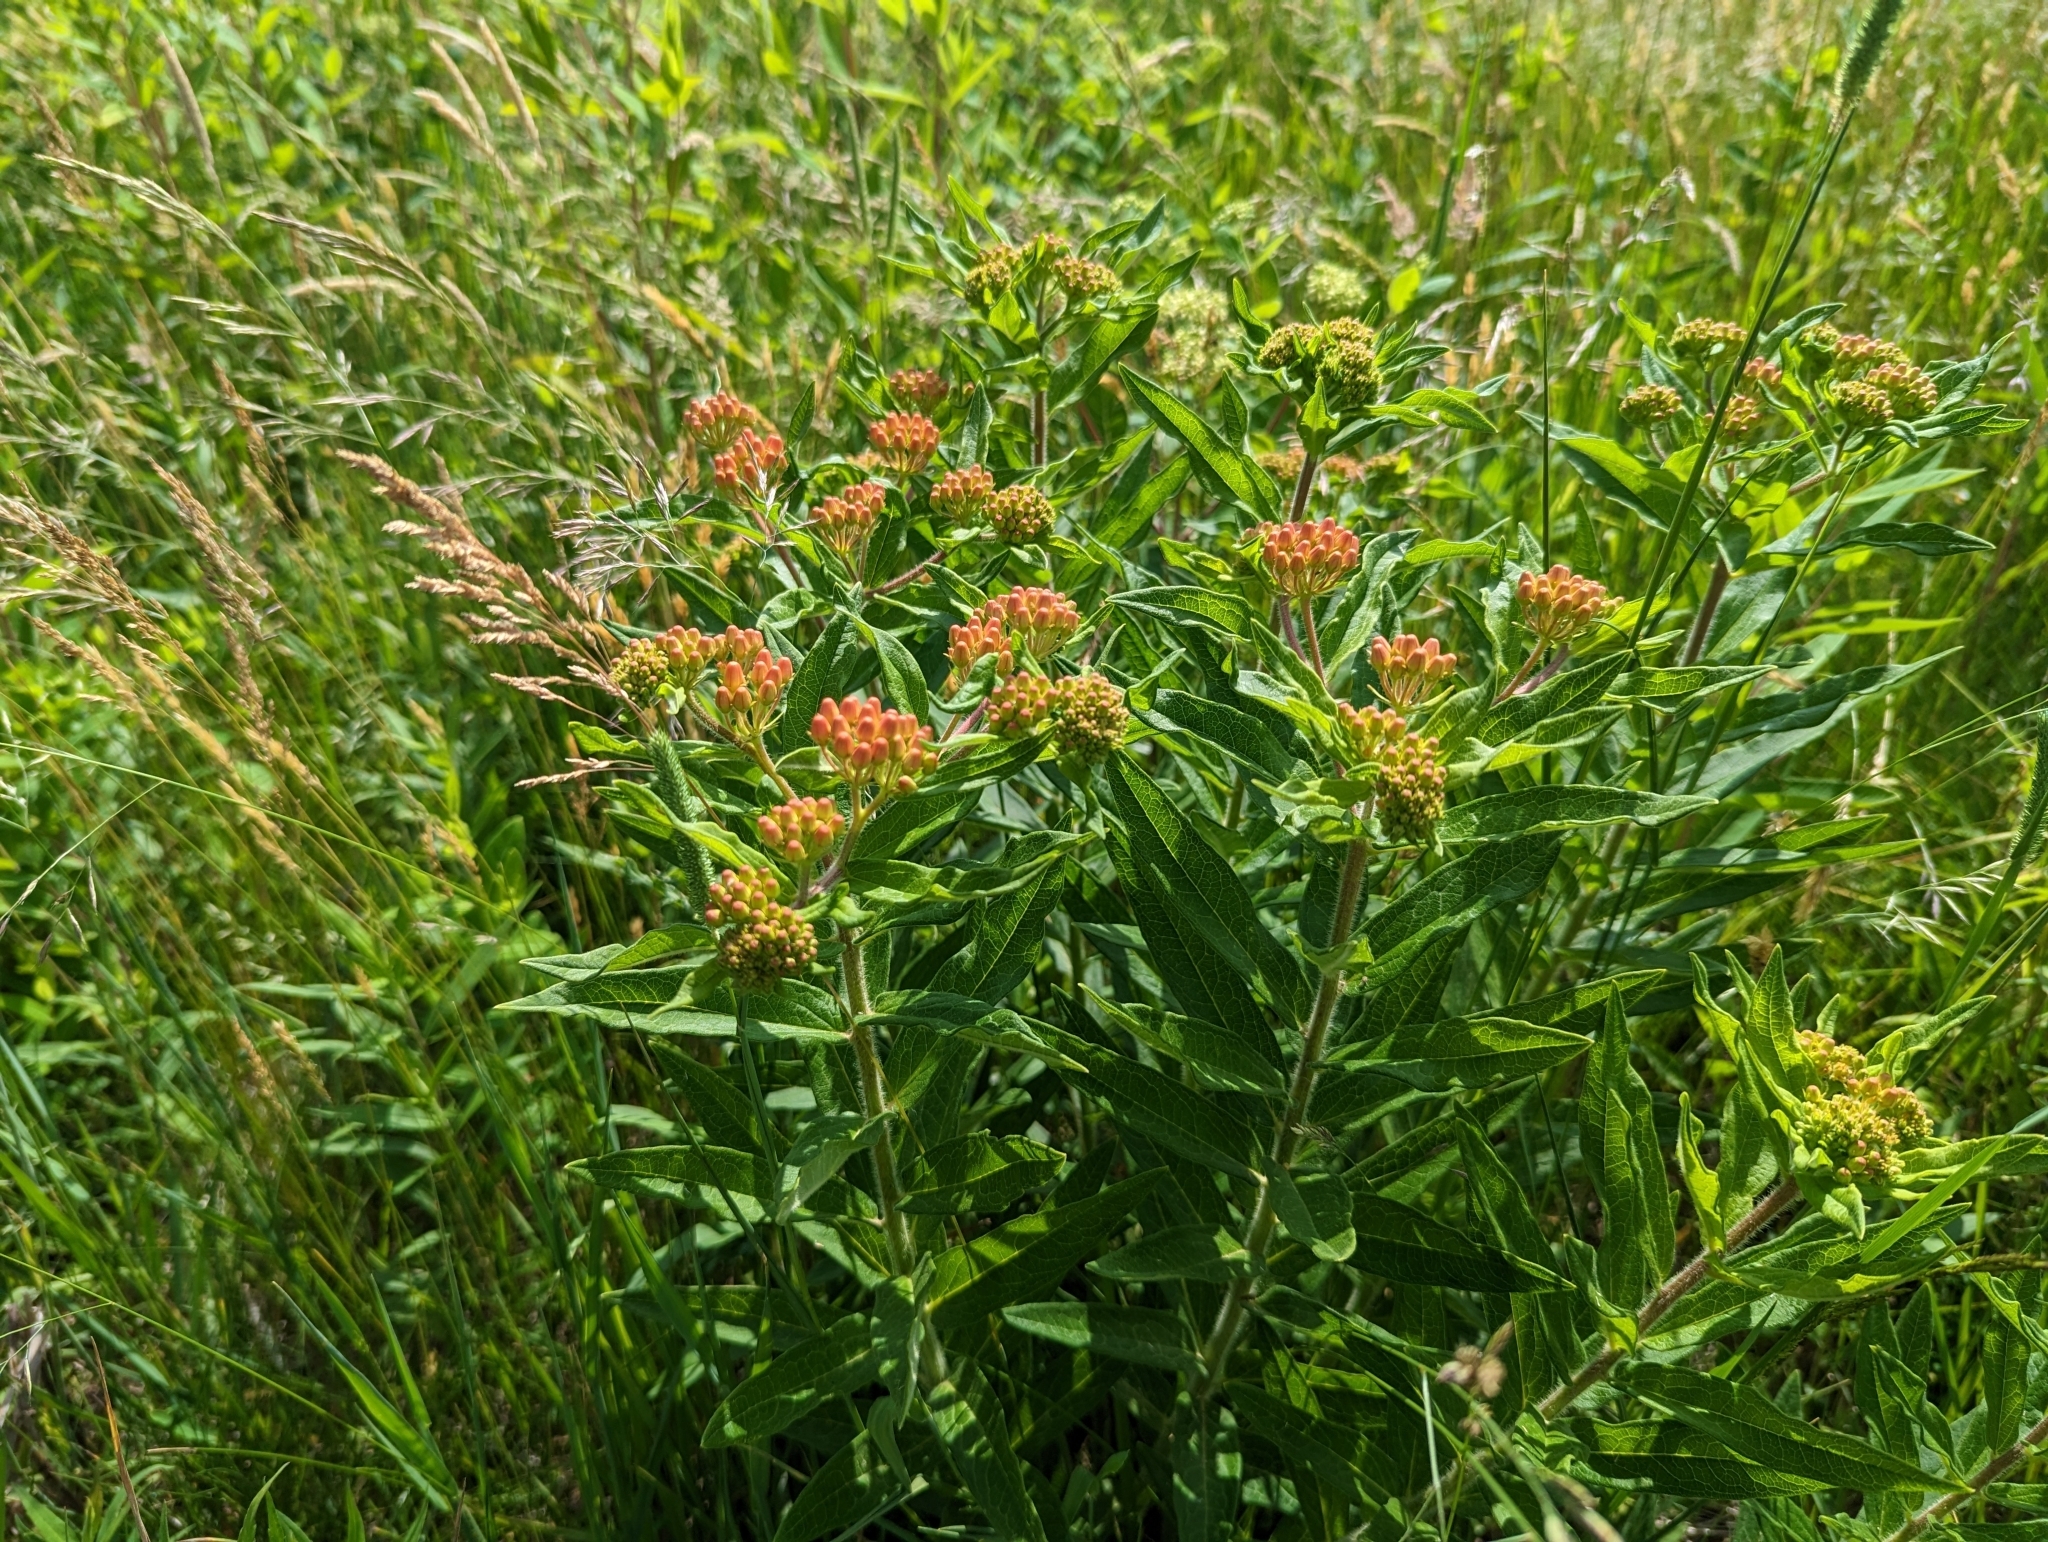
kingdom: Plantae
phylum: Tracheophyta
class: Magnoliopsida
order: Gentianales
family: Apocynaceae
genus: Asclepias
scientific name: Asclepias tuberosa
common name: Butterfly milkweed
